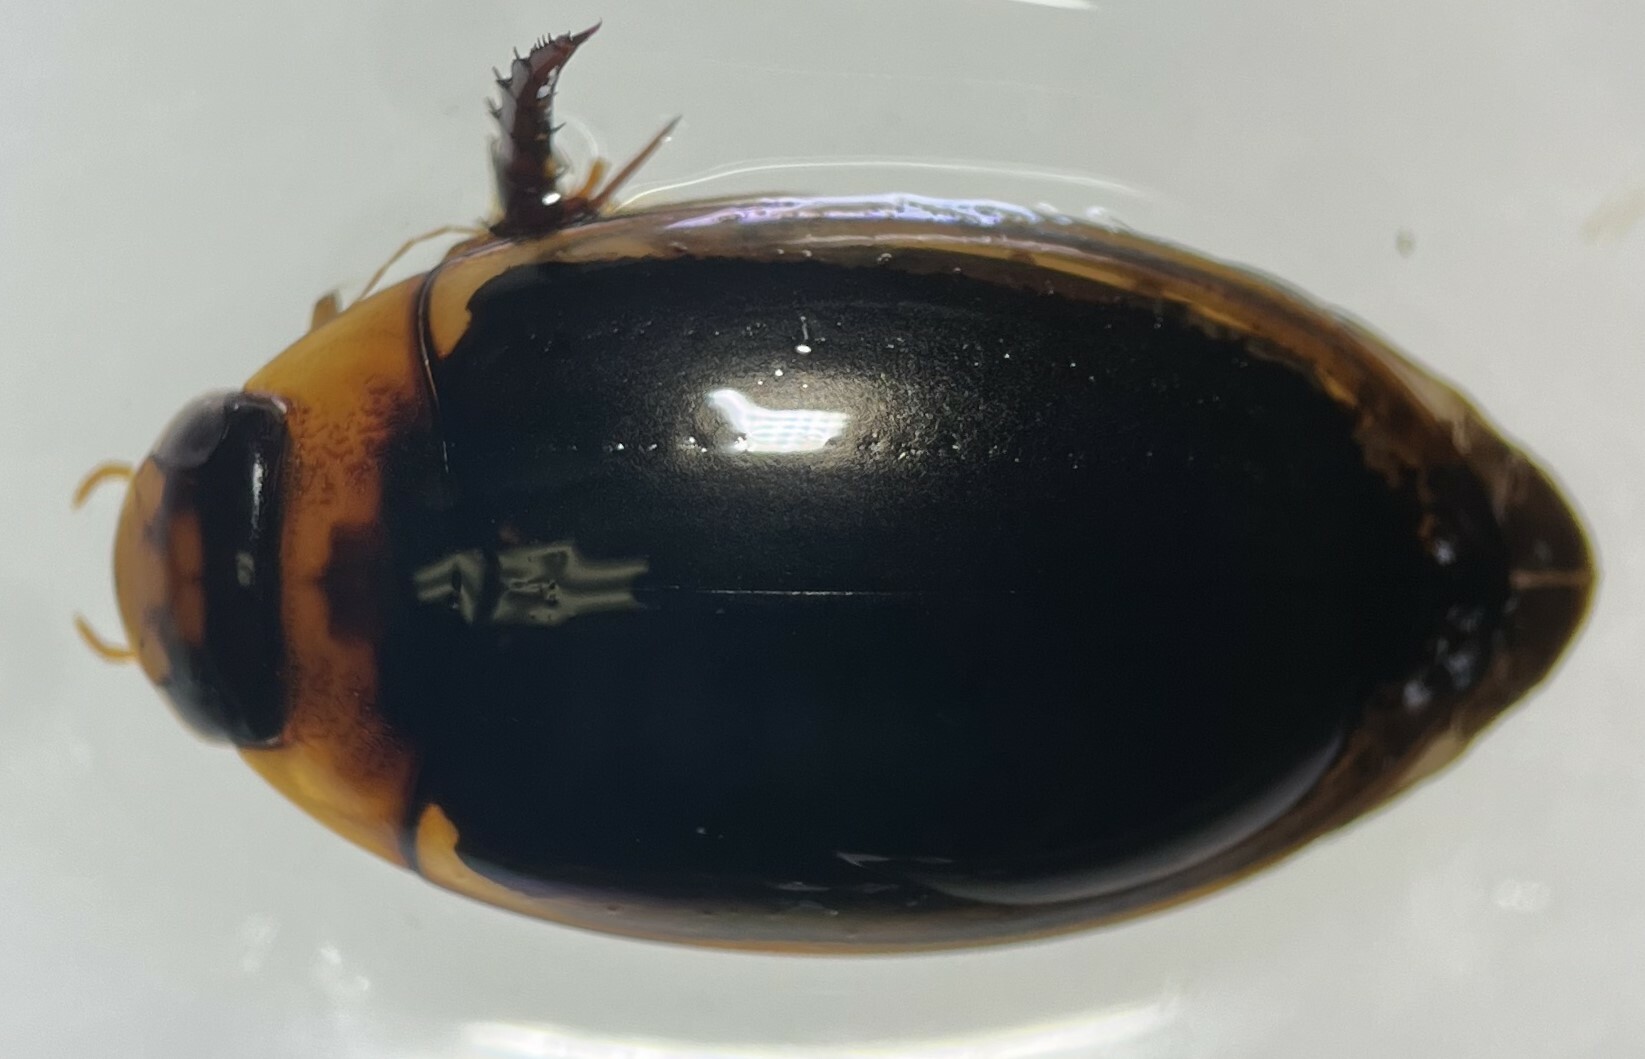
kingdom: Animalia
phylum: Arthropoda
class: Insecta
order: Coleoptera
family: Dytiscidae
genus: Hydaticus
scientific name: Hydaticus bimarginatus
